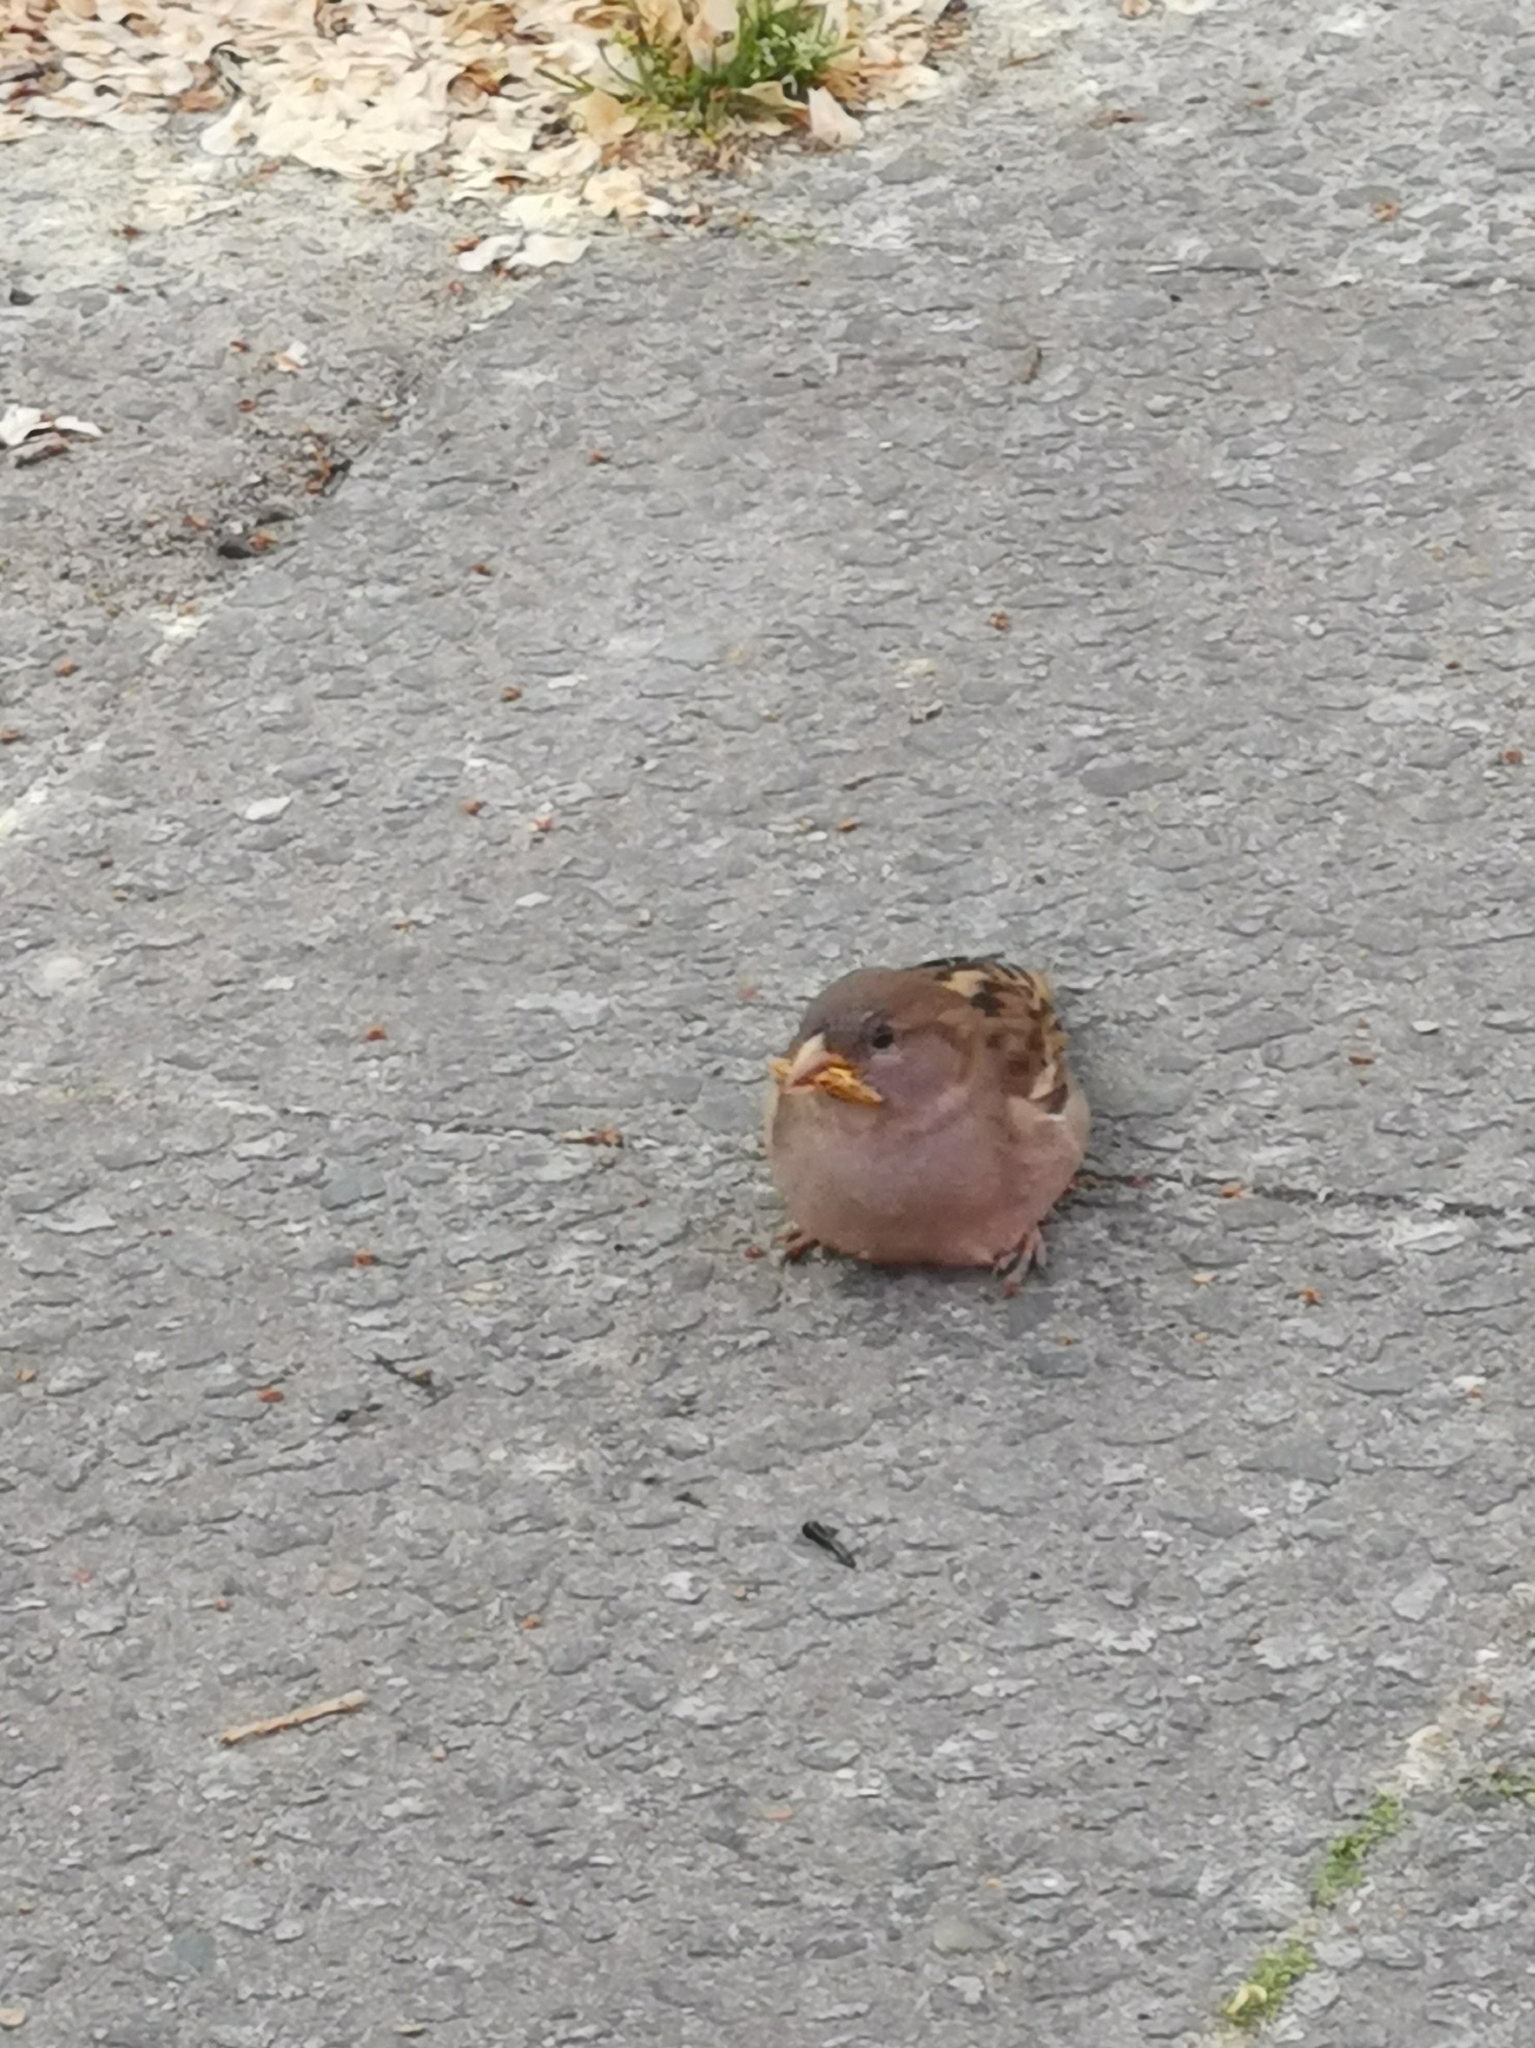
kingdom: Animalia
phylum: Chordata
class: Aves
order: Passeriformes
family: Passeridae
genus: Passer
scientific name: Passer domesticus
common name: House sparrow
